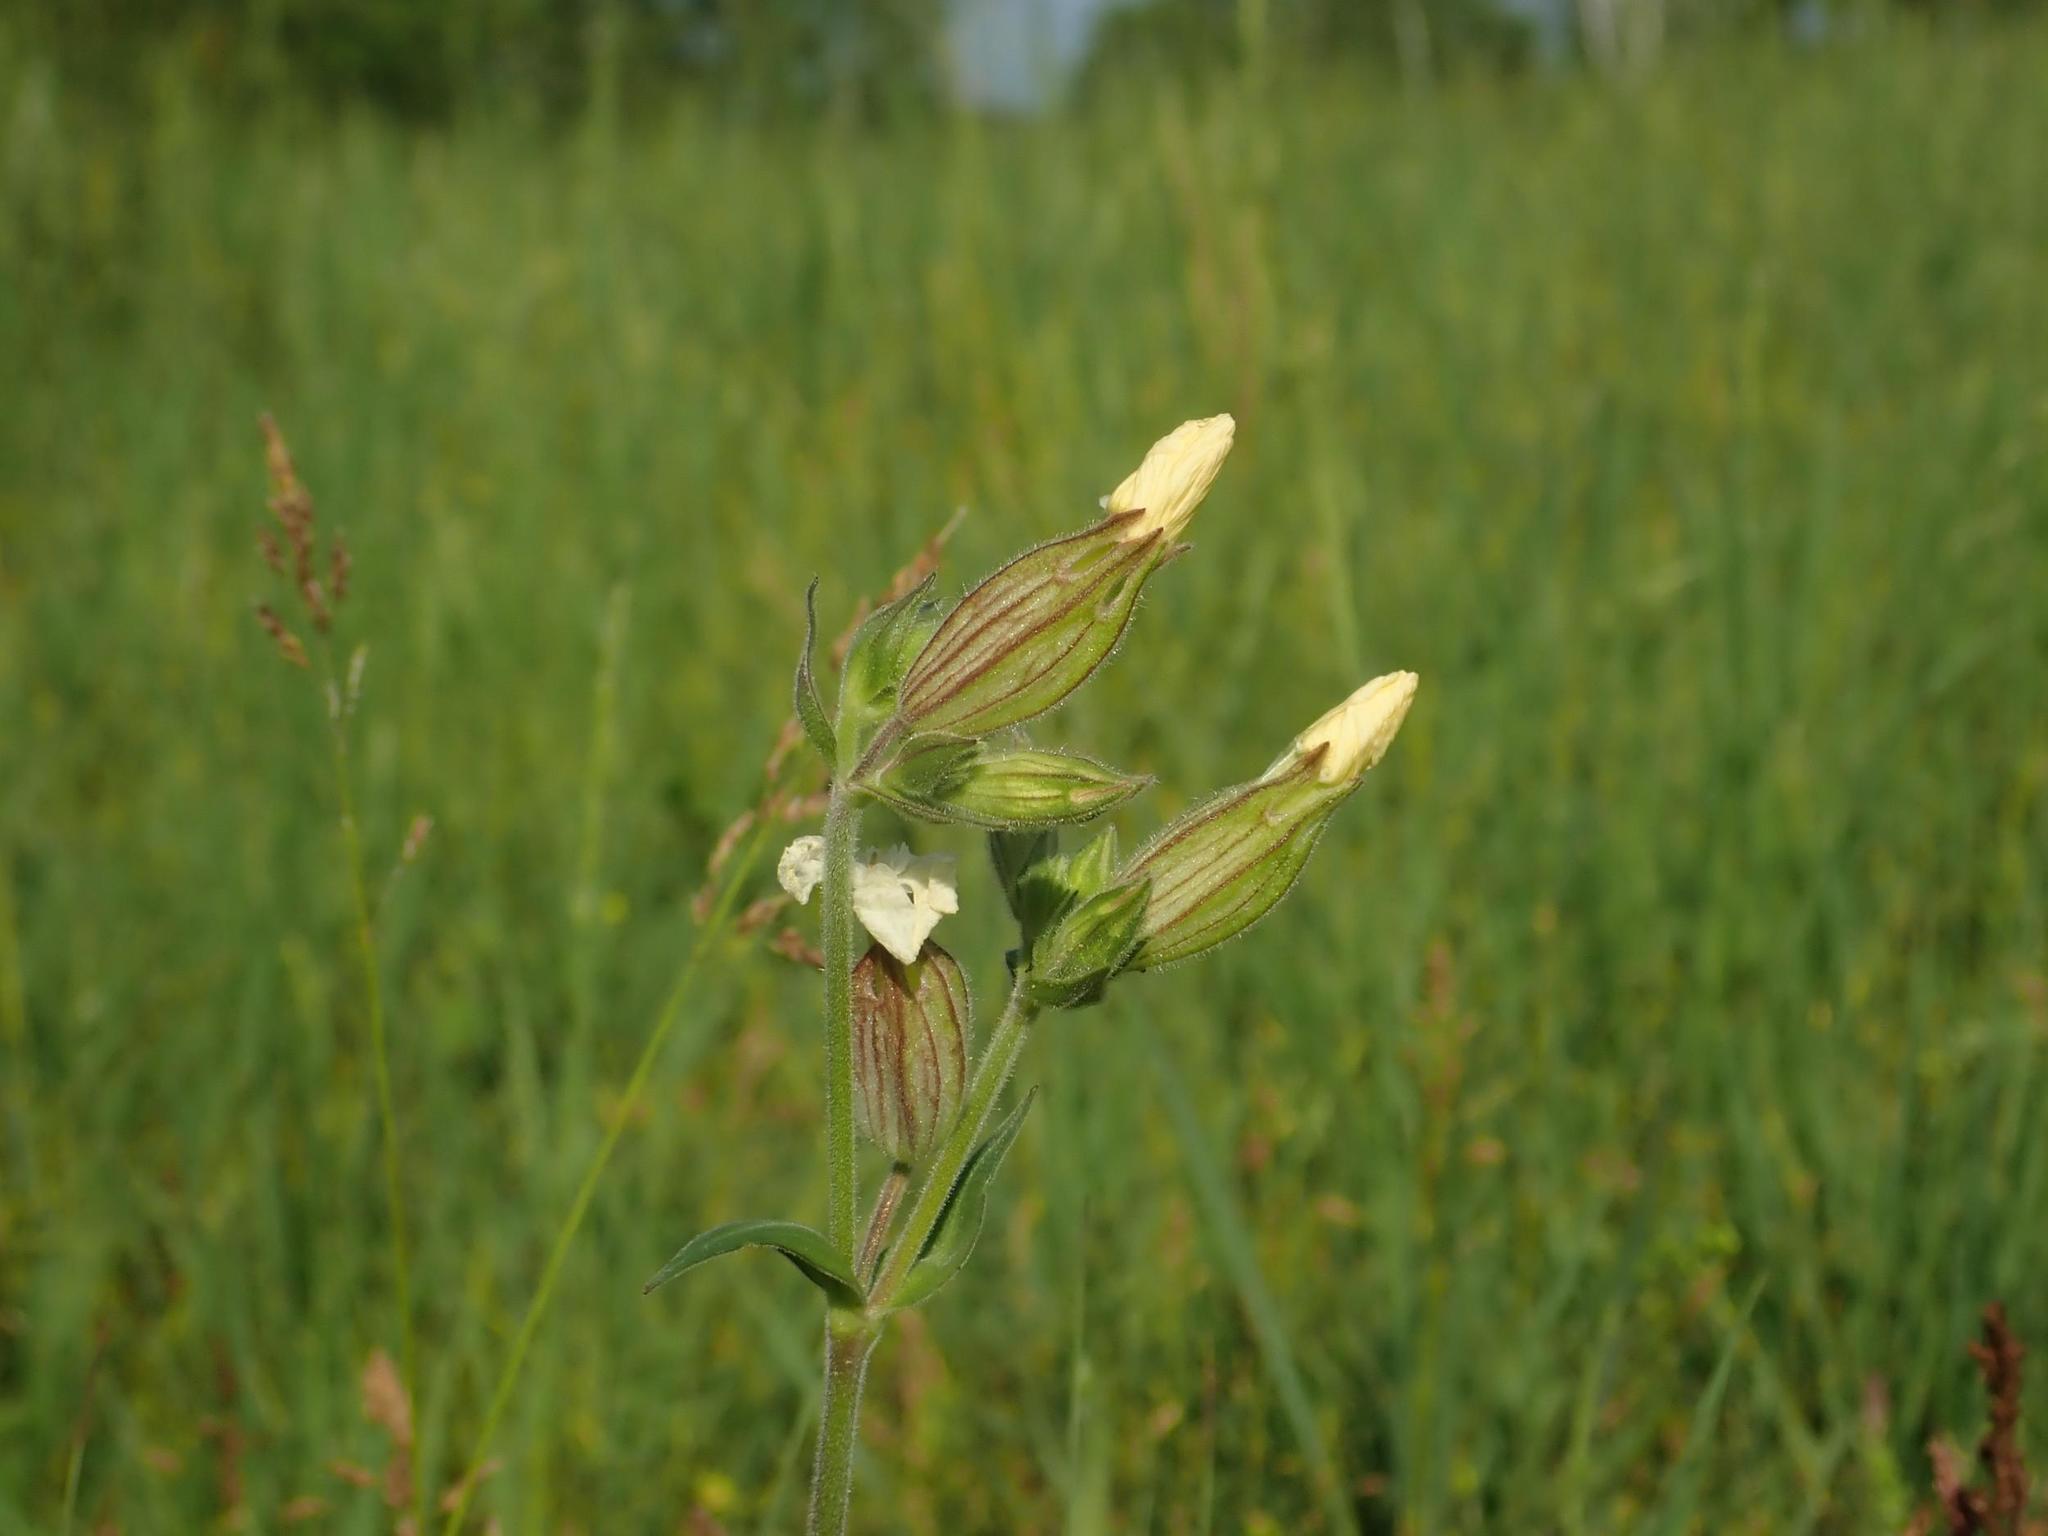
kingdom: Plantae
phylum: Tracheophyta
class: Magnoliopsida
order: Caryophyllales
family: Caryophyllaceae
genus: Silene
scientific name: Silene latifolia
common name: White campion
